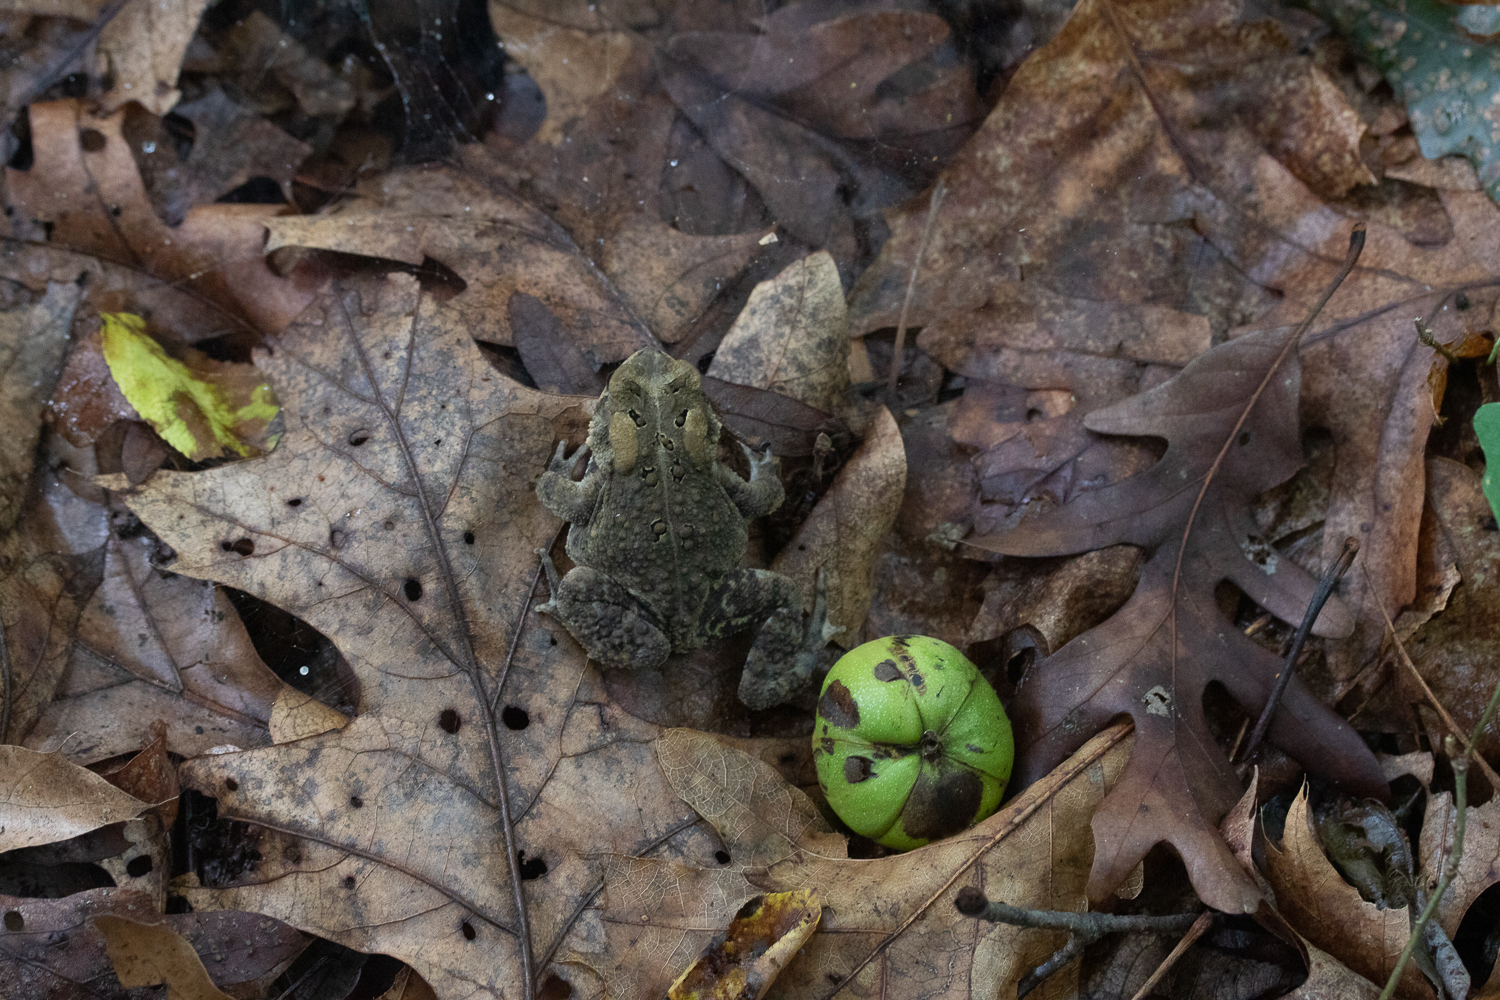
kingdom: Animalia
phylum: Chordata
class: Amphibia
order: Anura
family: Bufonidae
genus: Anaxyrus
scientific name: Anaxyrus americanus
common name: American toad
